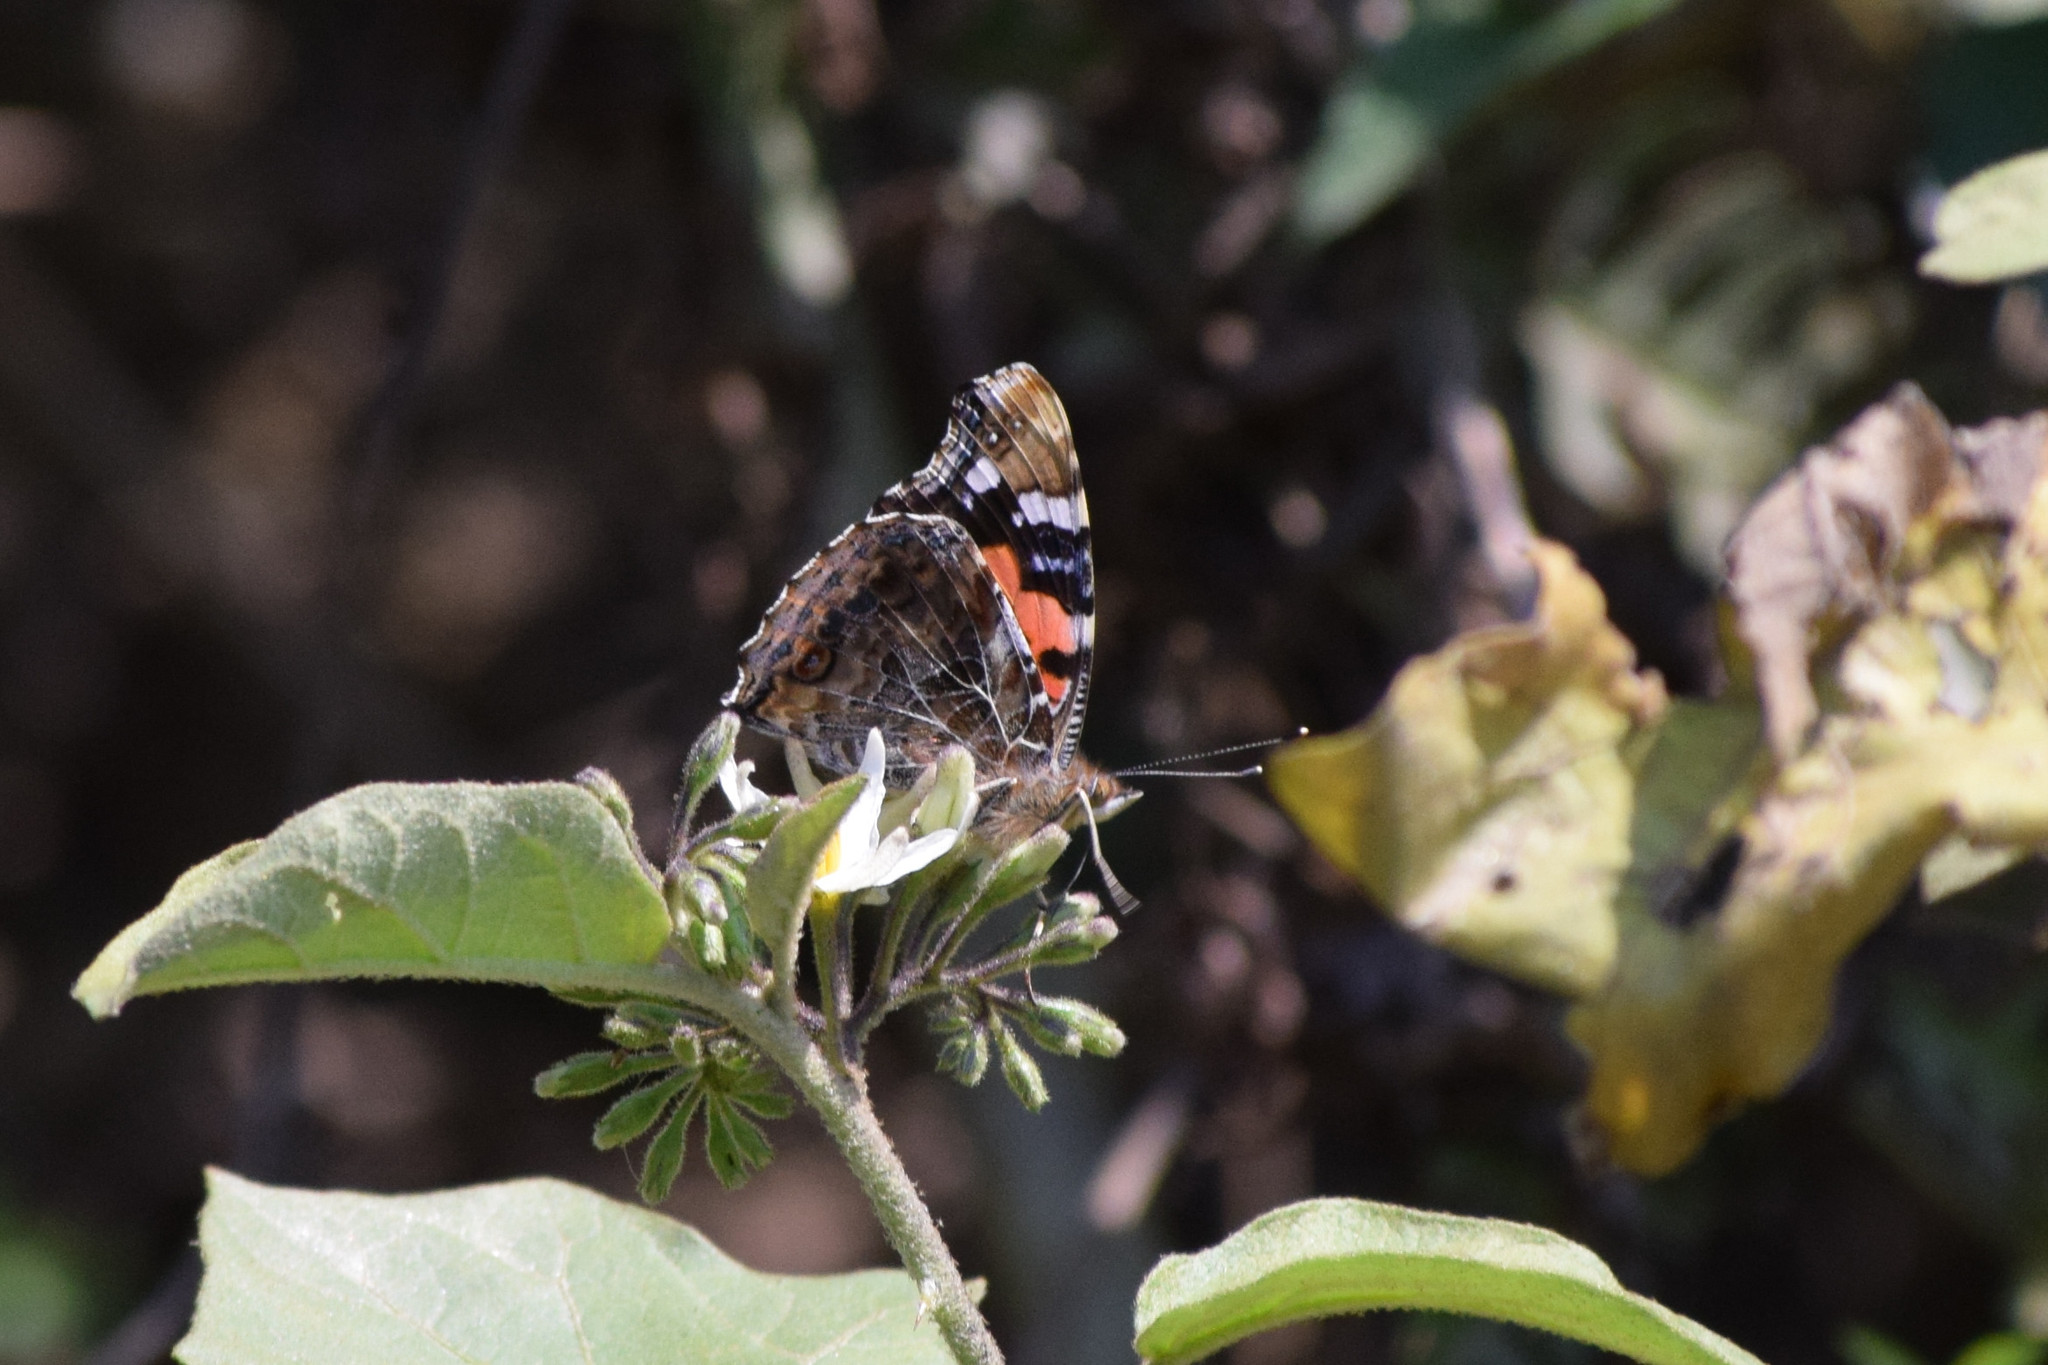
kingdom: Animalia
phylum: Arthropoda
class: Insecta
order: Lepidoptera
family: Nymphalidae
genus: Vanessa
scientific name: Vanessa indica
